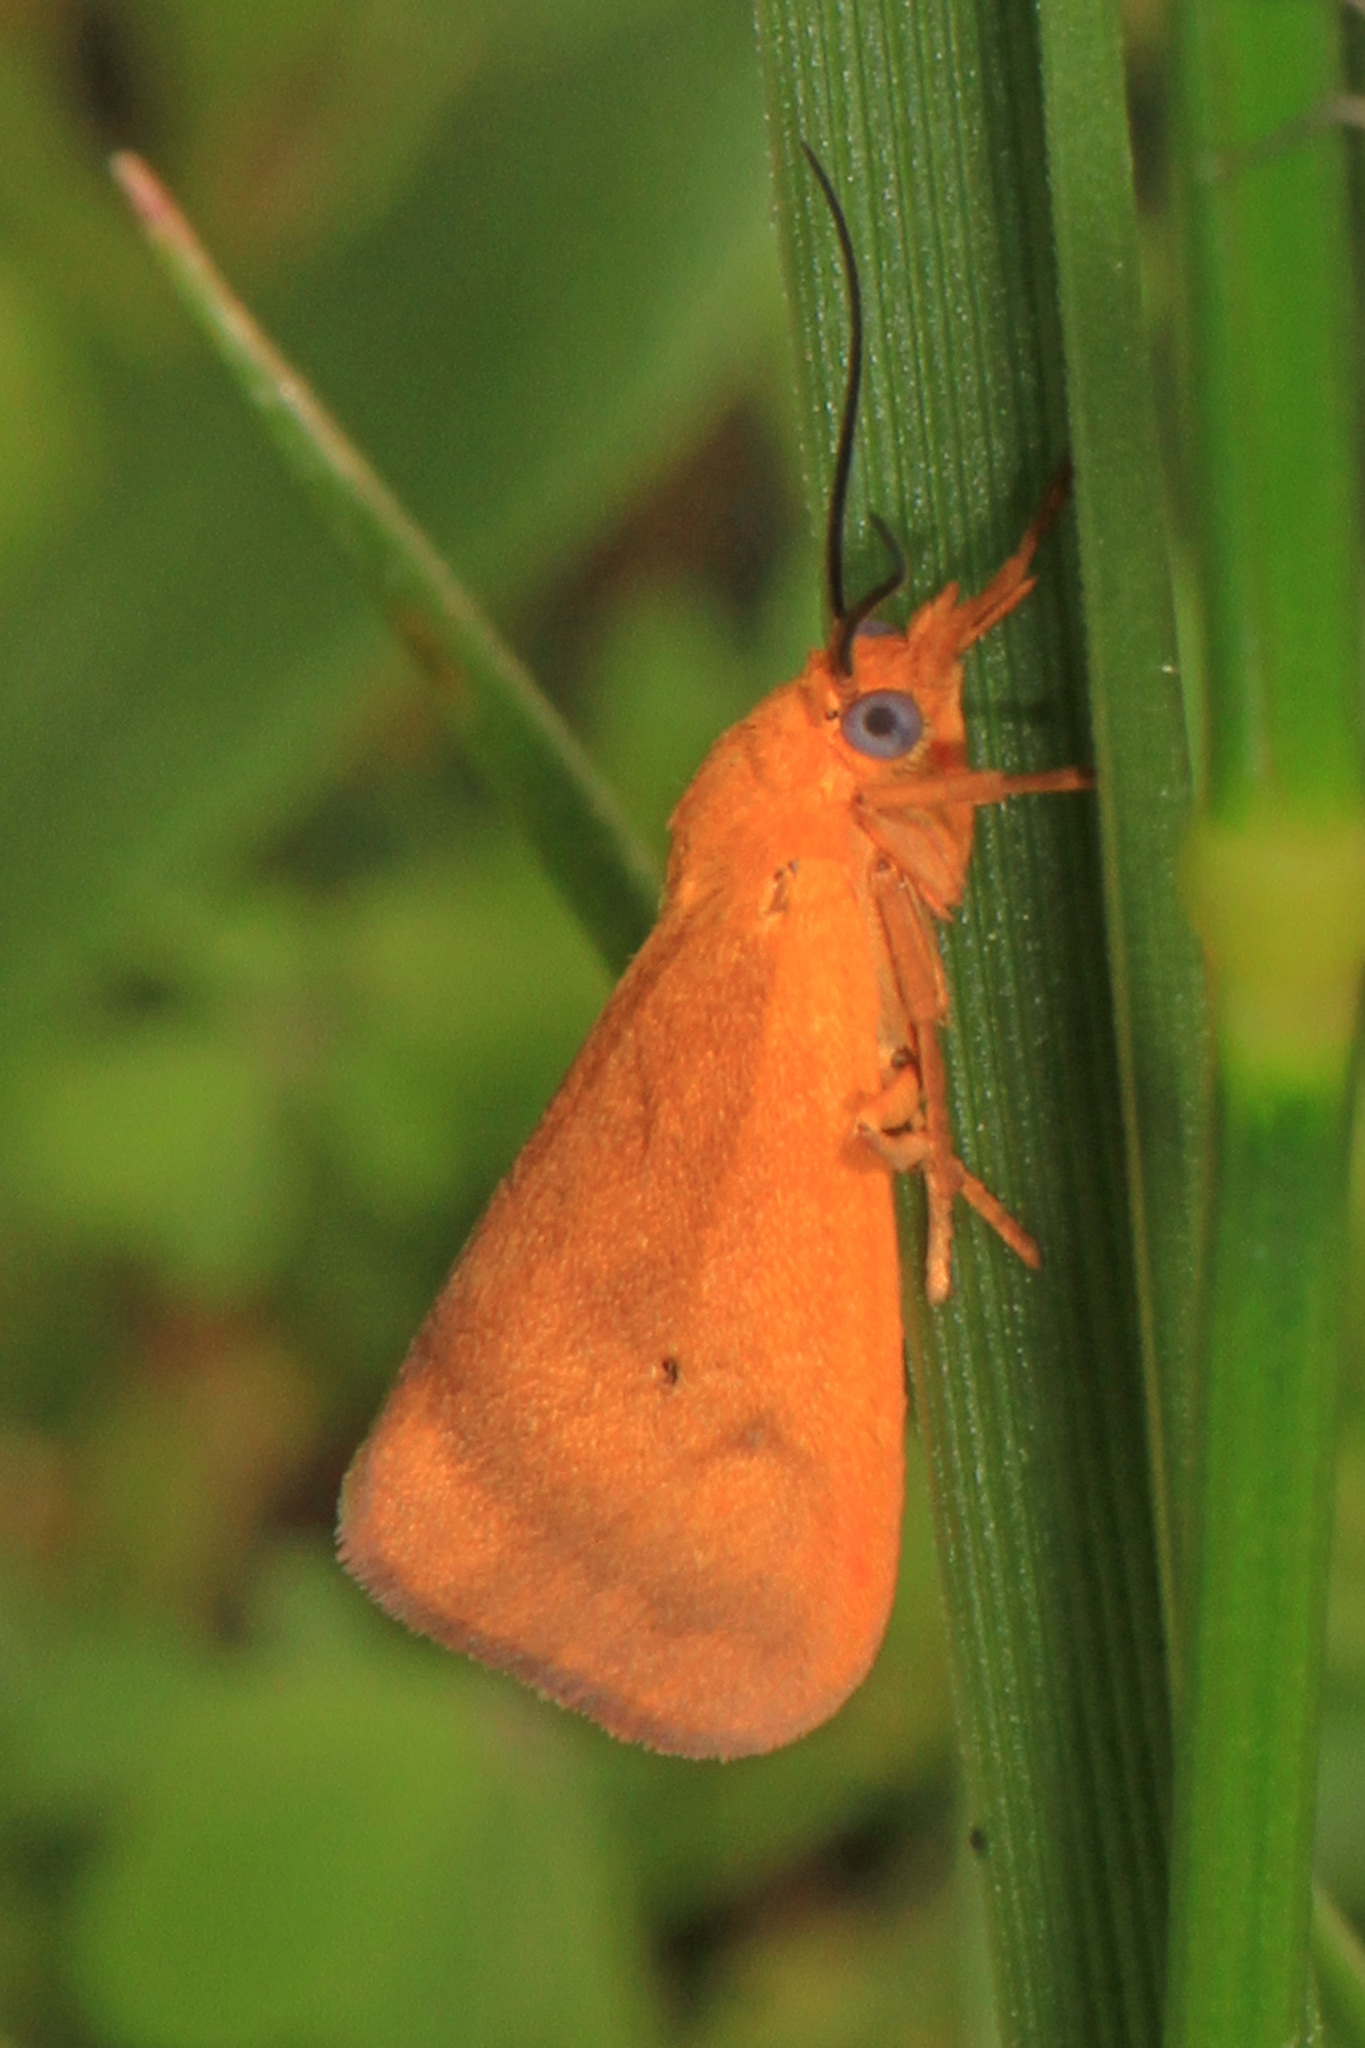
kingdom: Animalia
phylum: Arthropoda
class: Insecta
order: Lepidoptera
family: Erebidae
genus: Virbia
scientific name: Virbia aurantiaca
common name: Orange virbia moth
